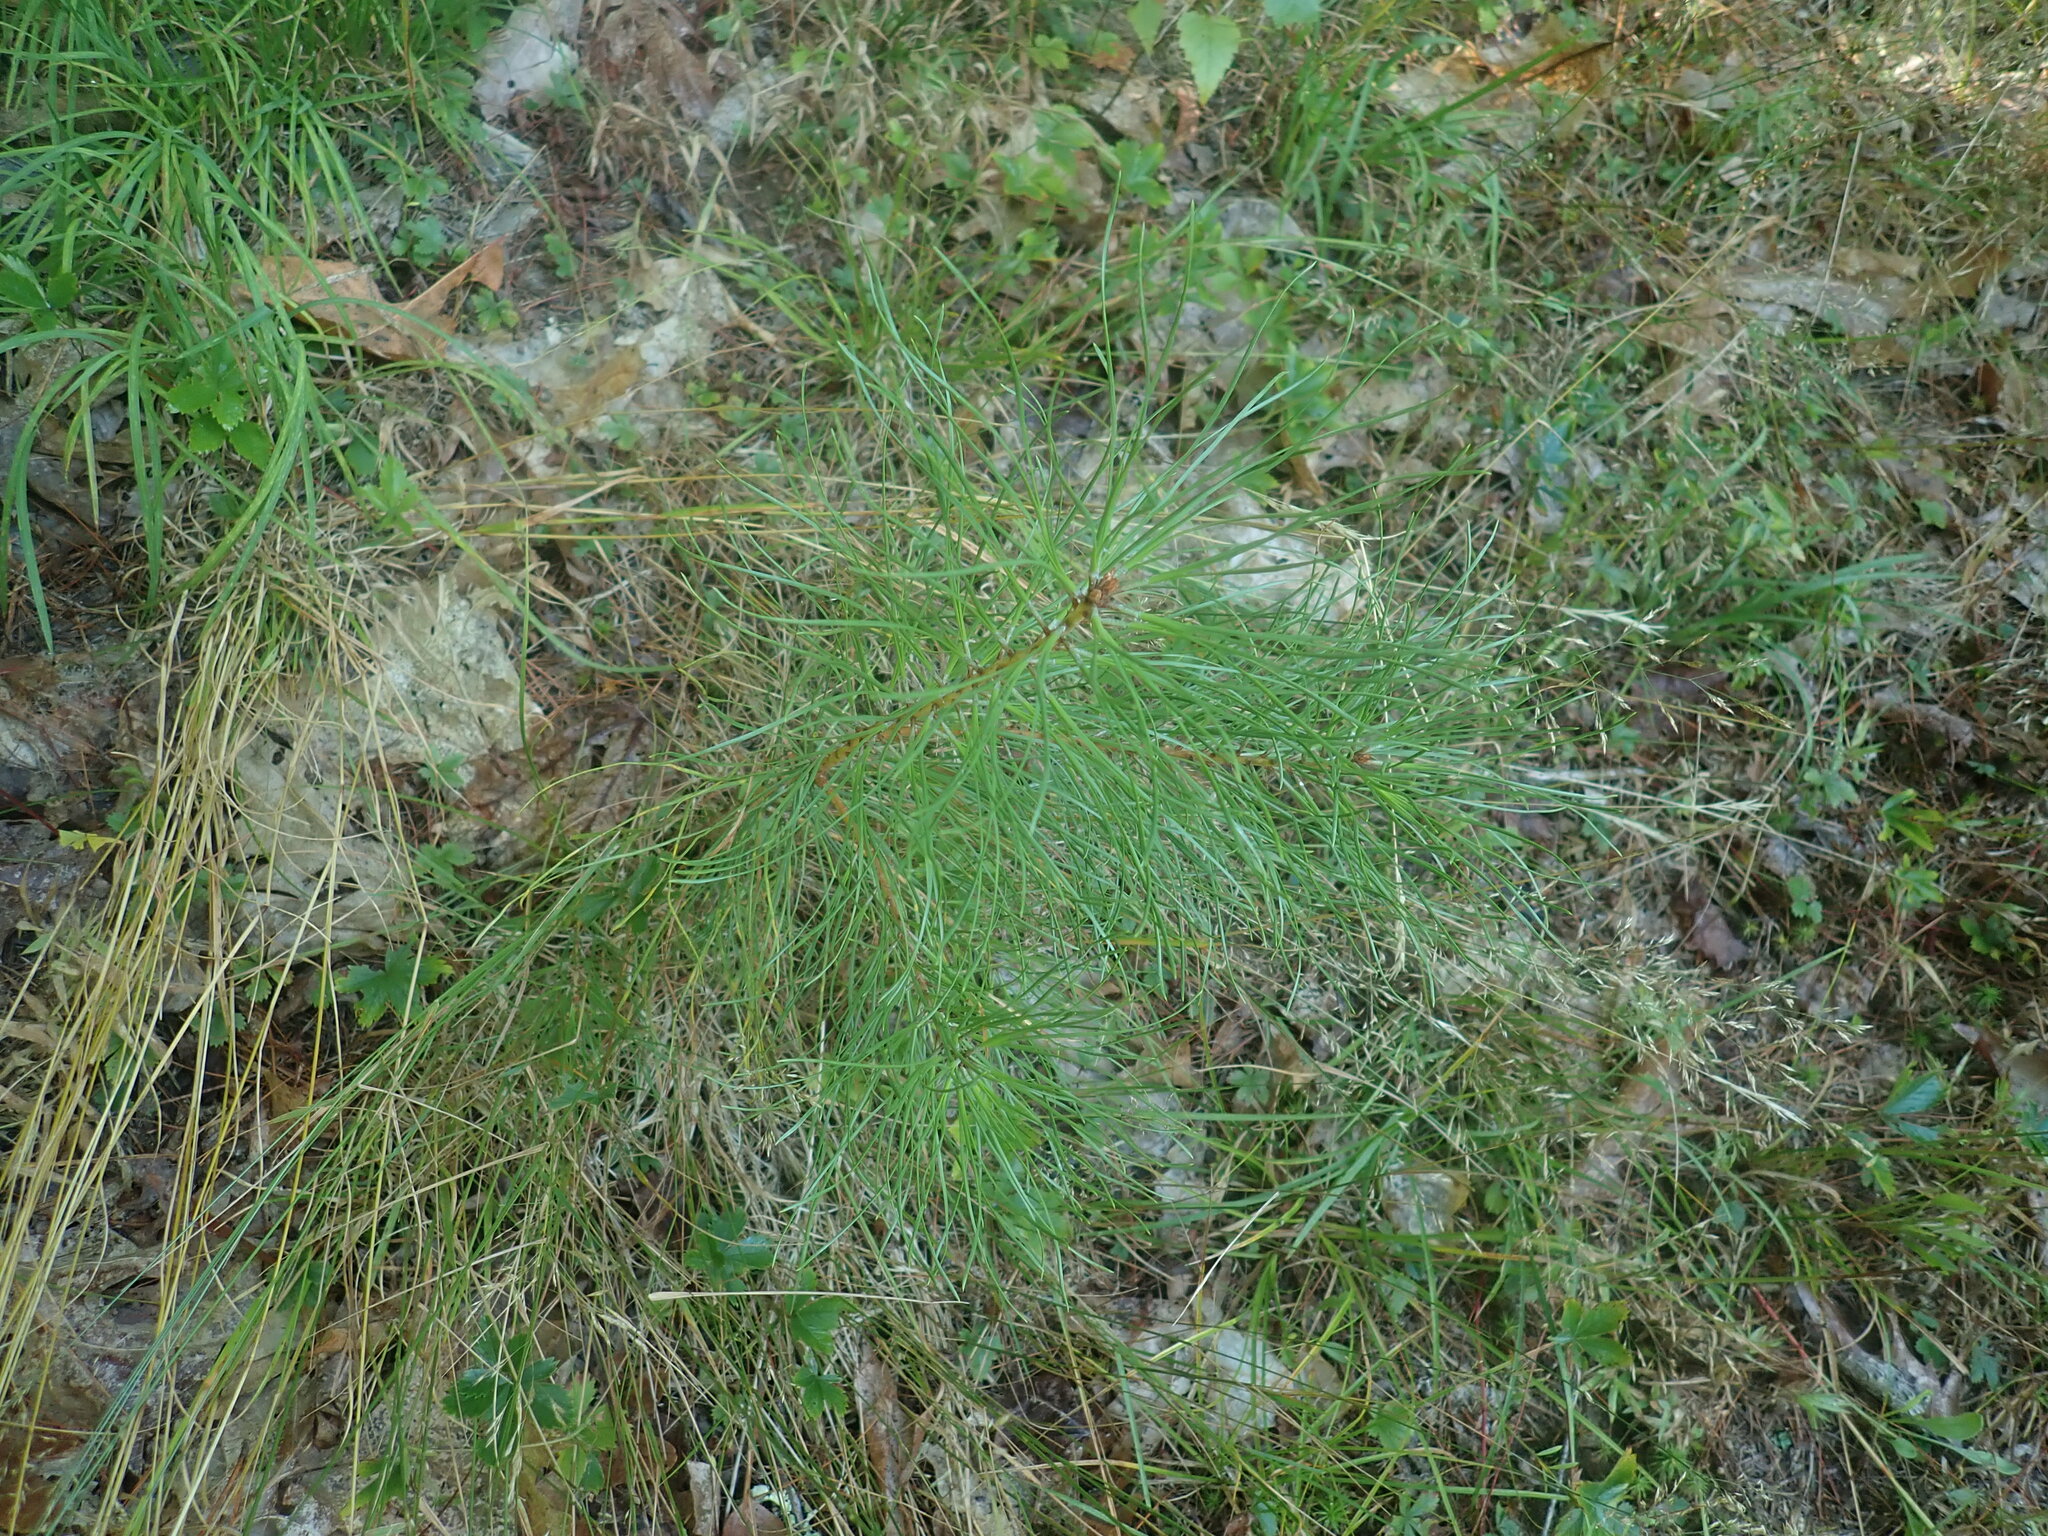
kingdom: Plantae
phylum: Tracheophyta
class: Pinopsida
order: Pinales
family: Pinaceae
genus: Pinus
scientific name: Pinus rigida
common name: Pitch pine
